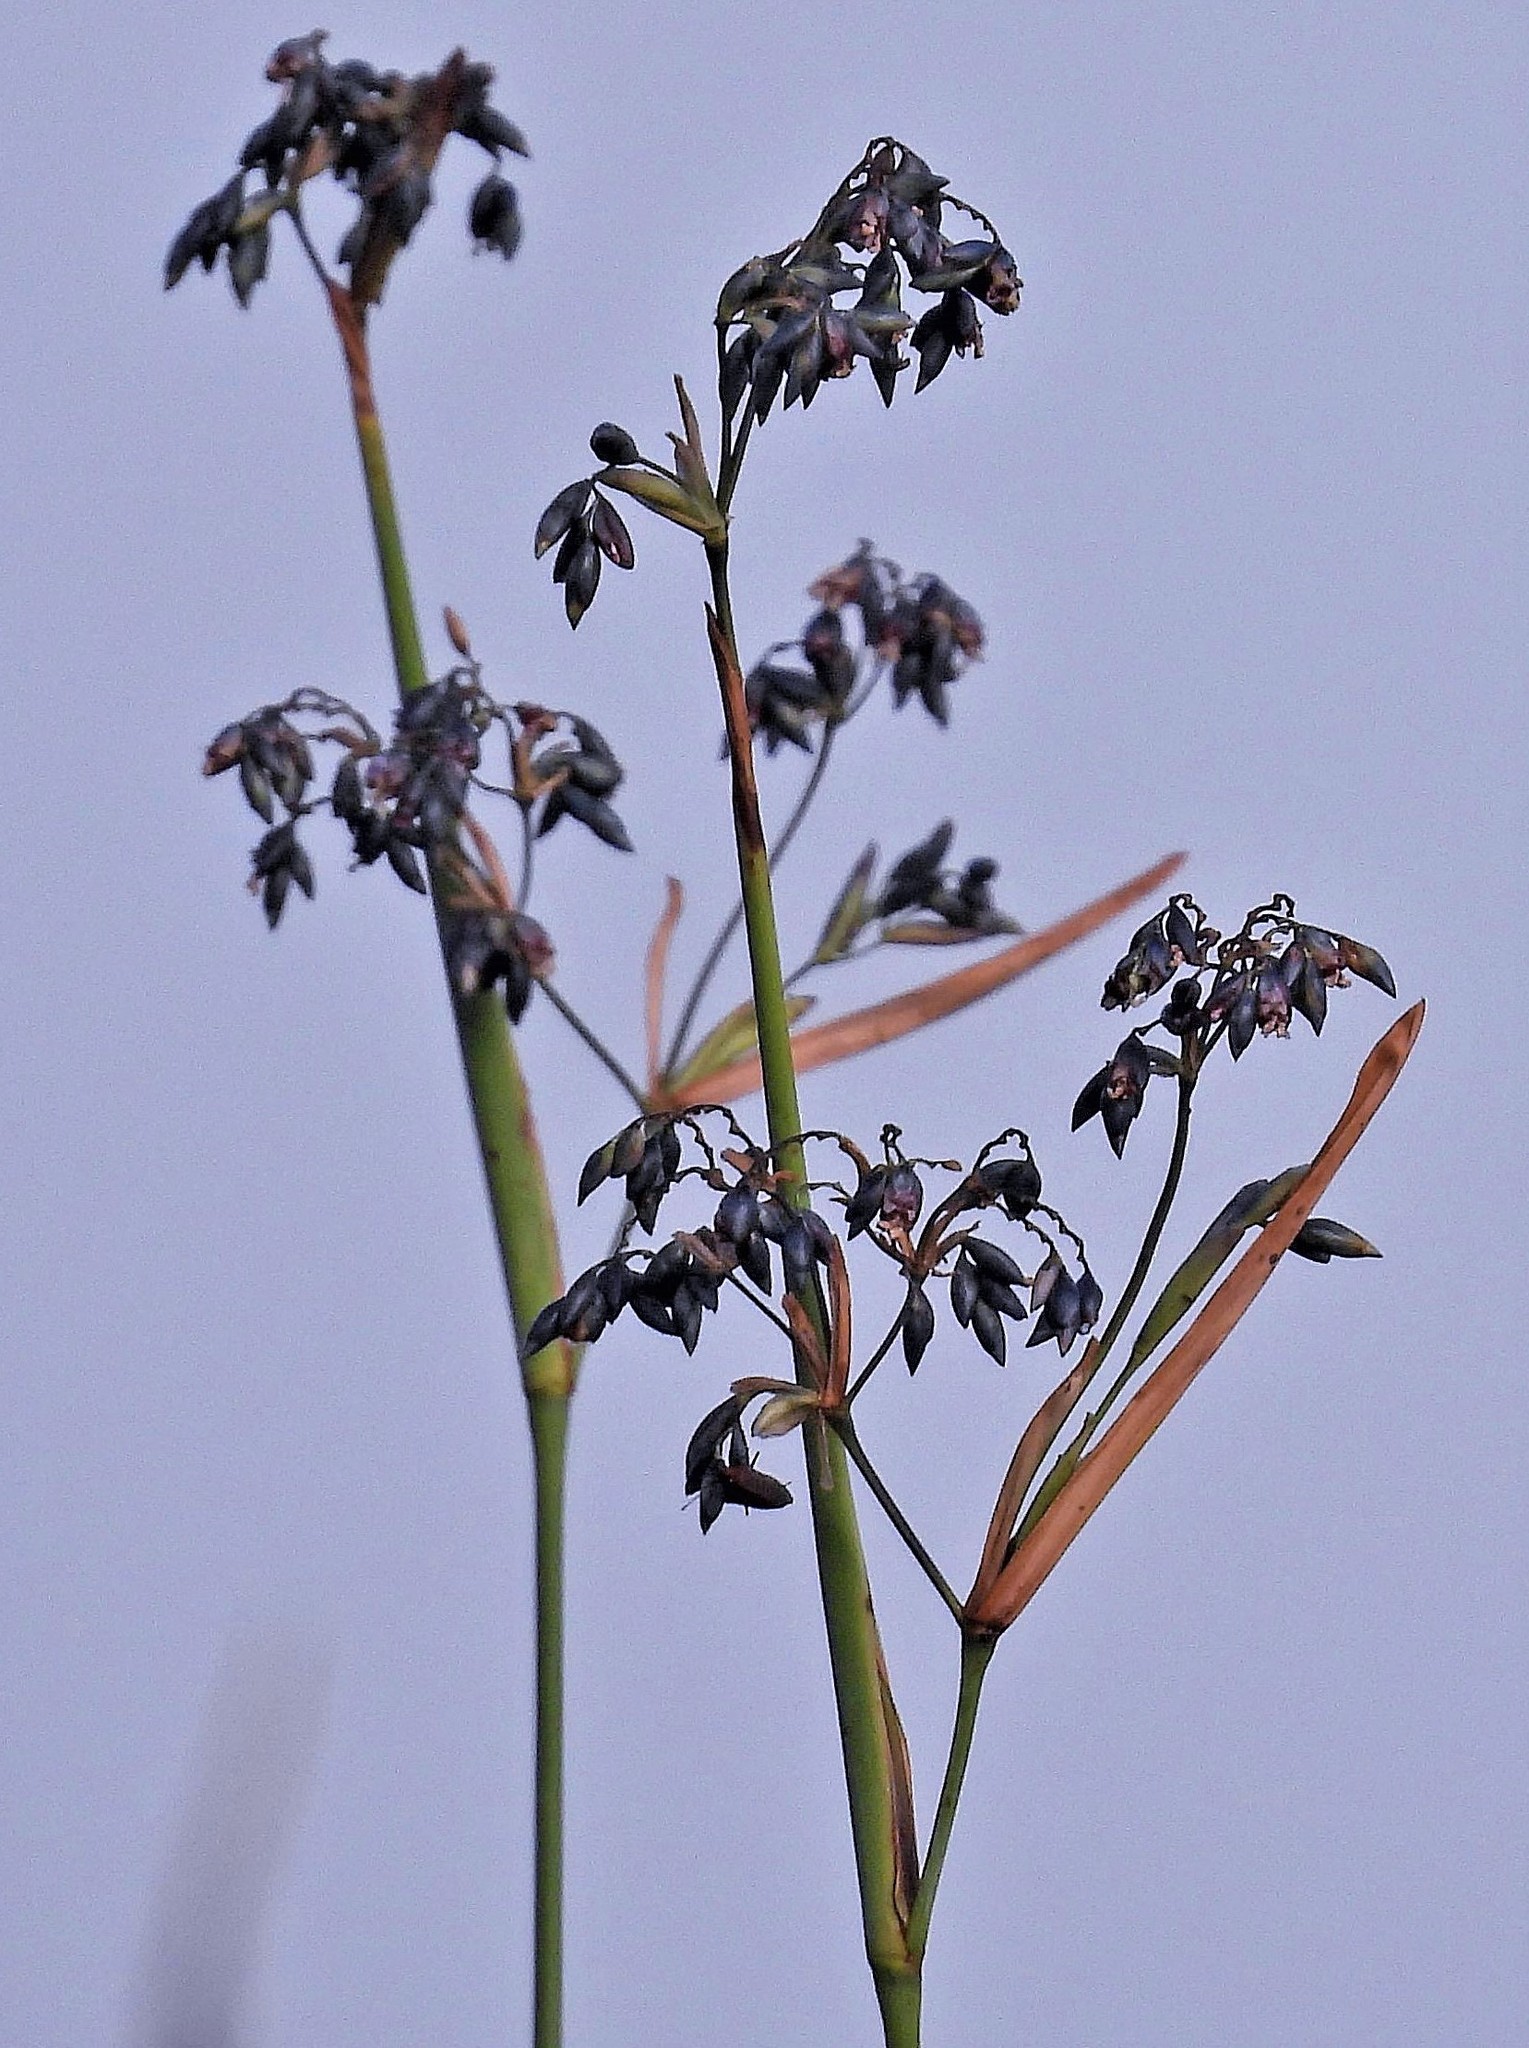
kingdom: Plantae
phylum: Tracheophyta
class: Liliopsida
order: Zingiberales
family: Marantaceae
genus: Thalia
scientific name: Thalia geniculata
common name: Arrowroot
